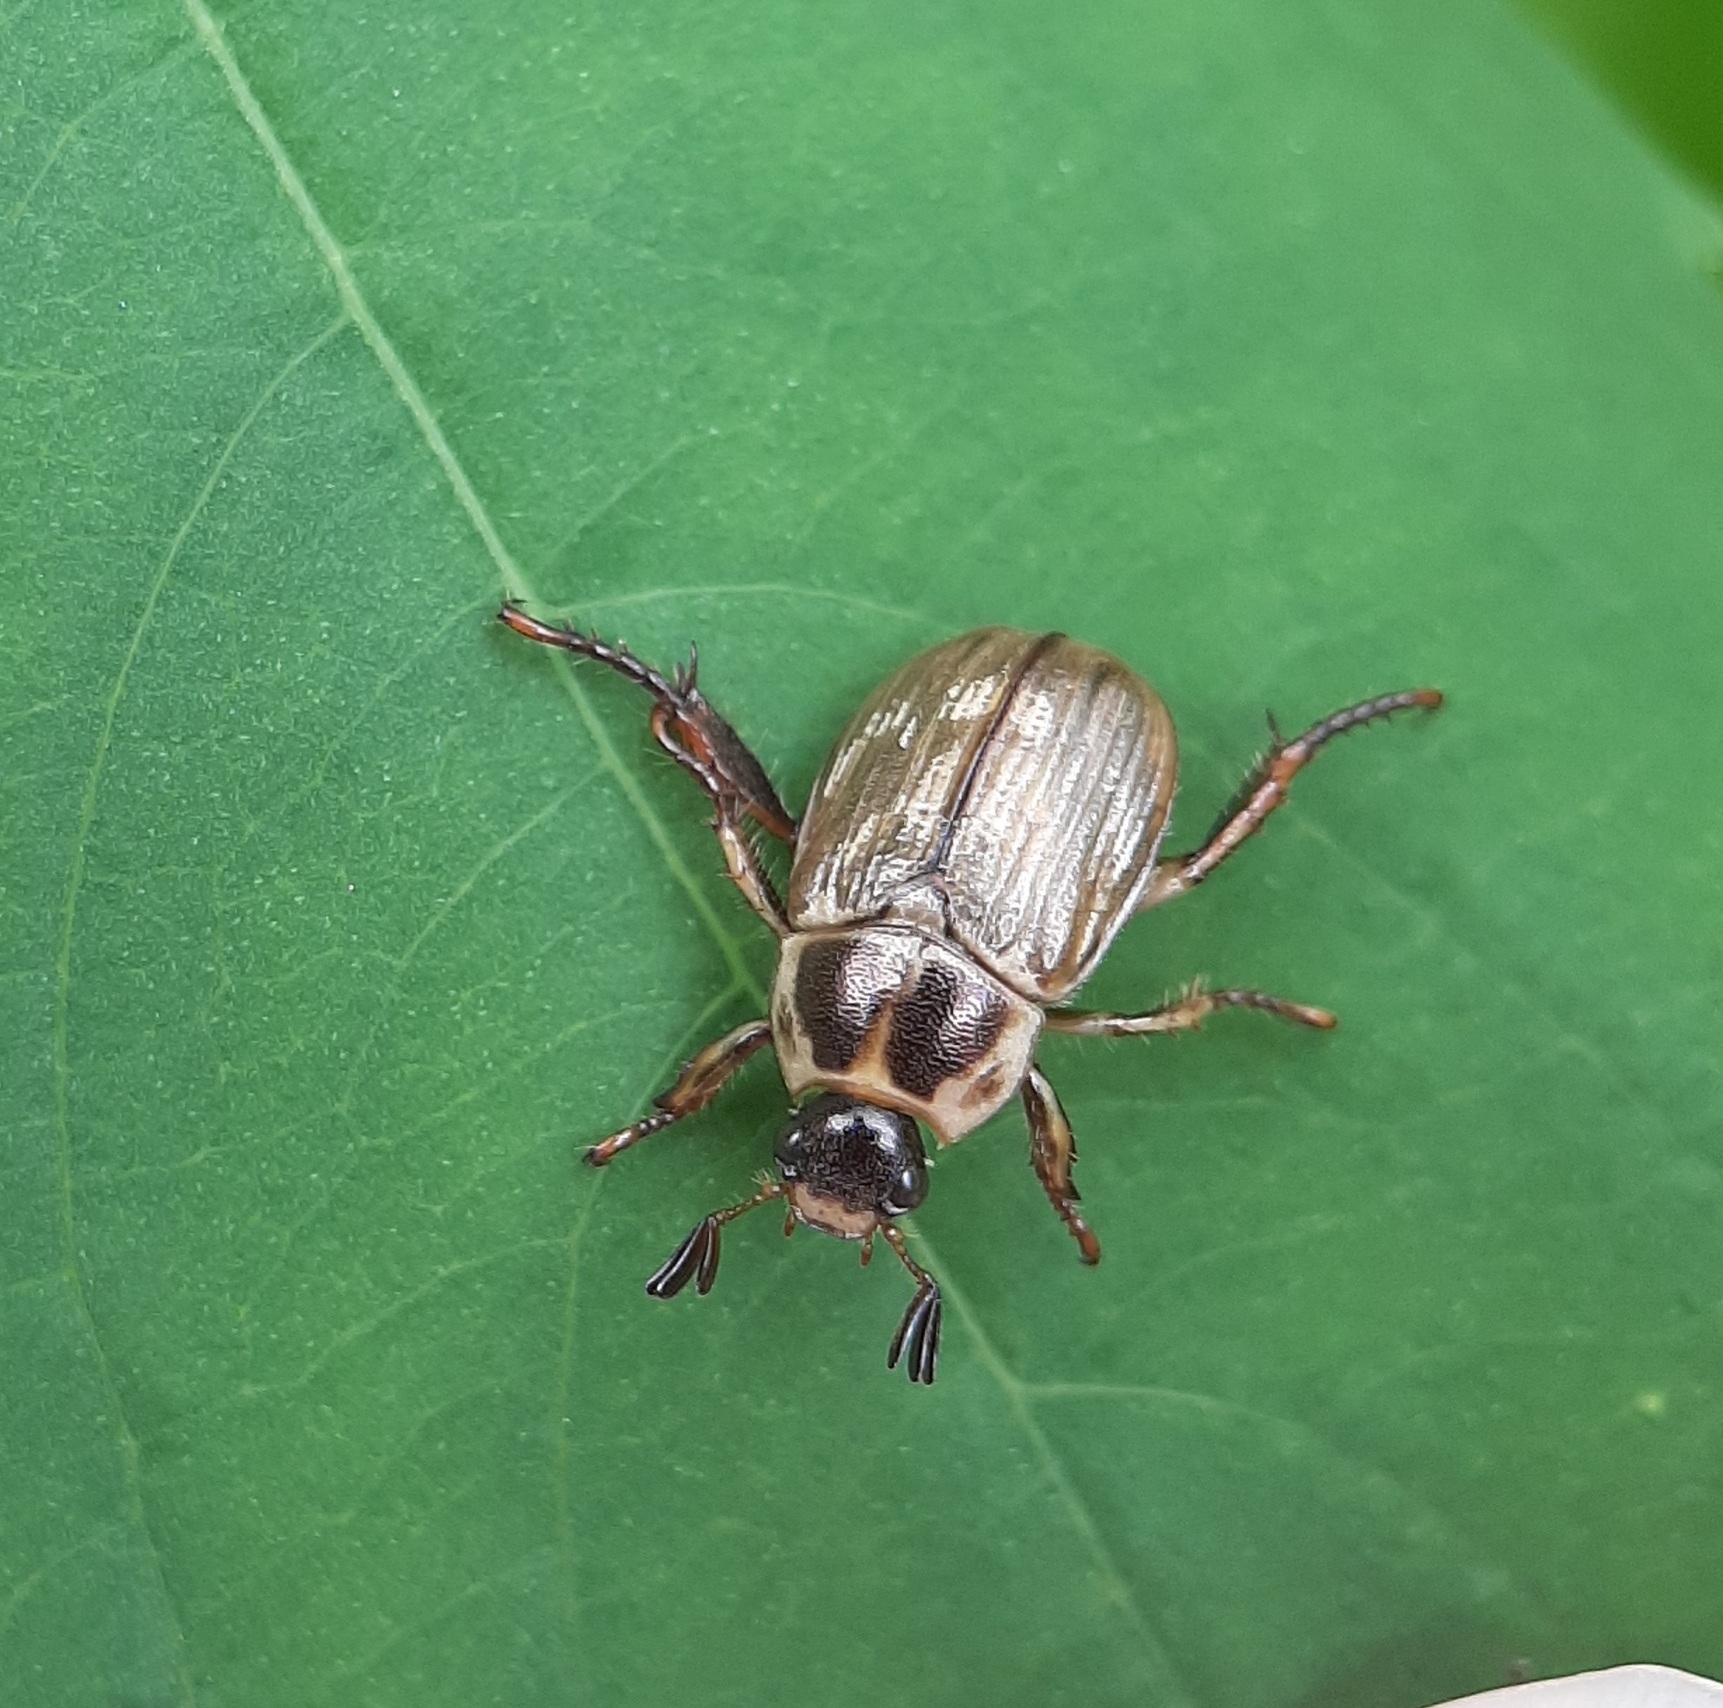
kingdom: Animalia
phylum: Arthropoda
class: Insecta
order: Coleoptera
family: Scarabaeidae
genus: Exomala
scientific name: Exomala orientalis
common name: Oriental beetle
